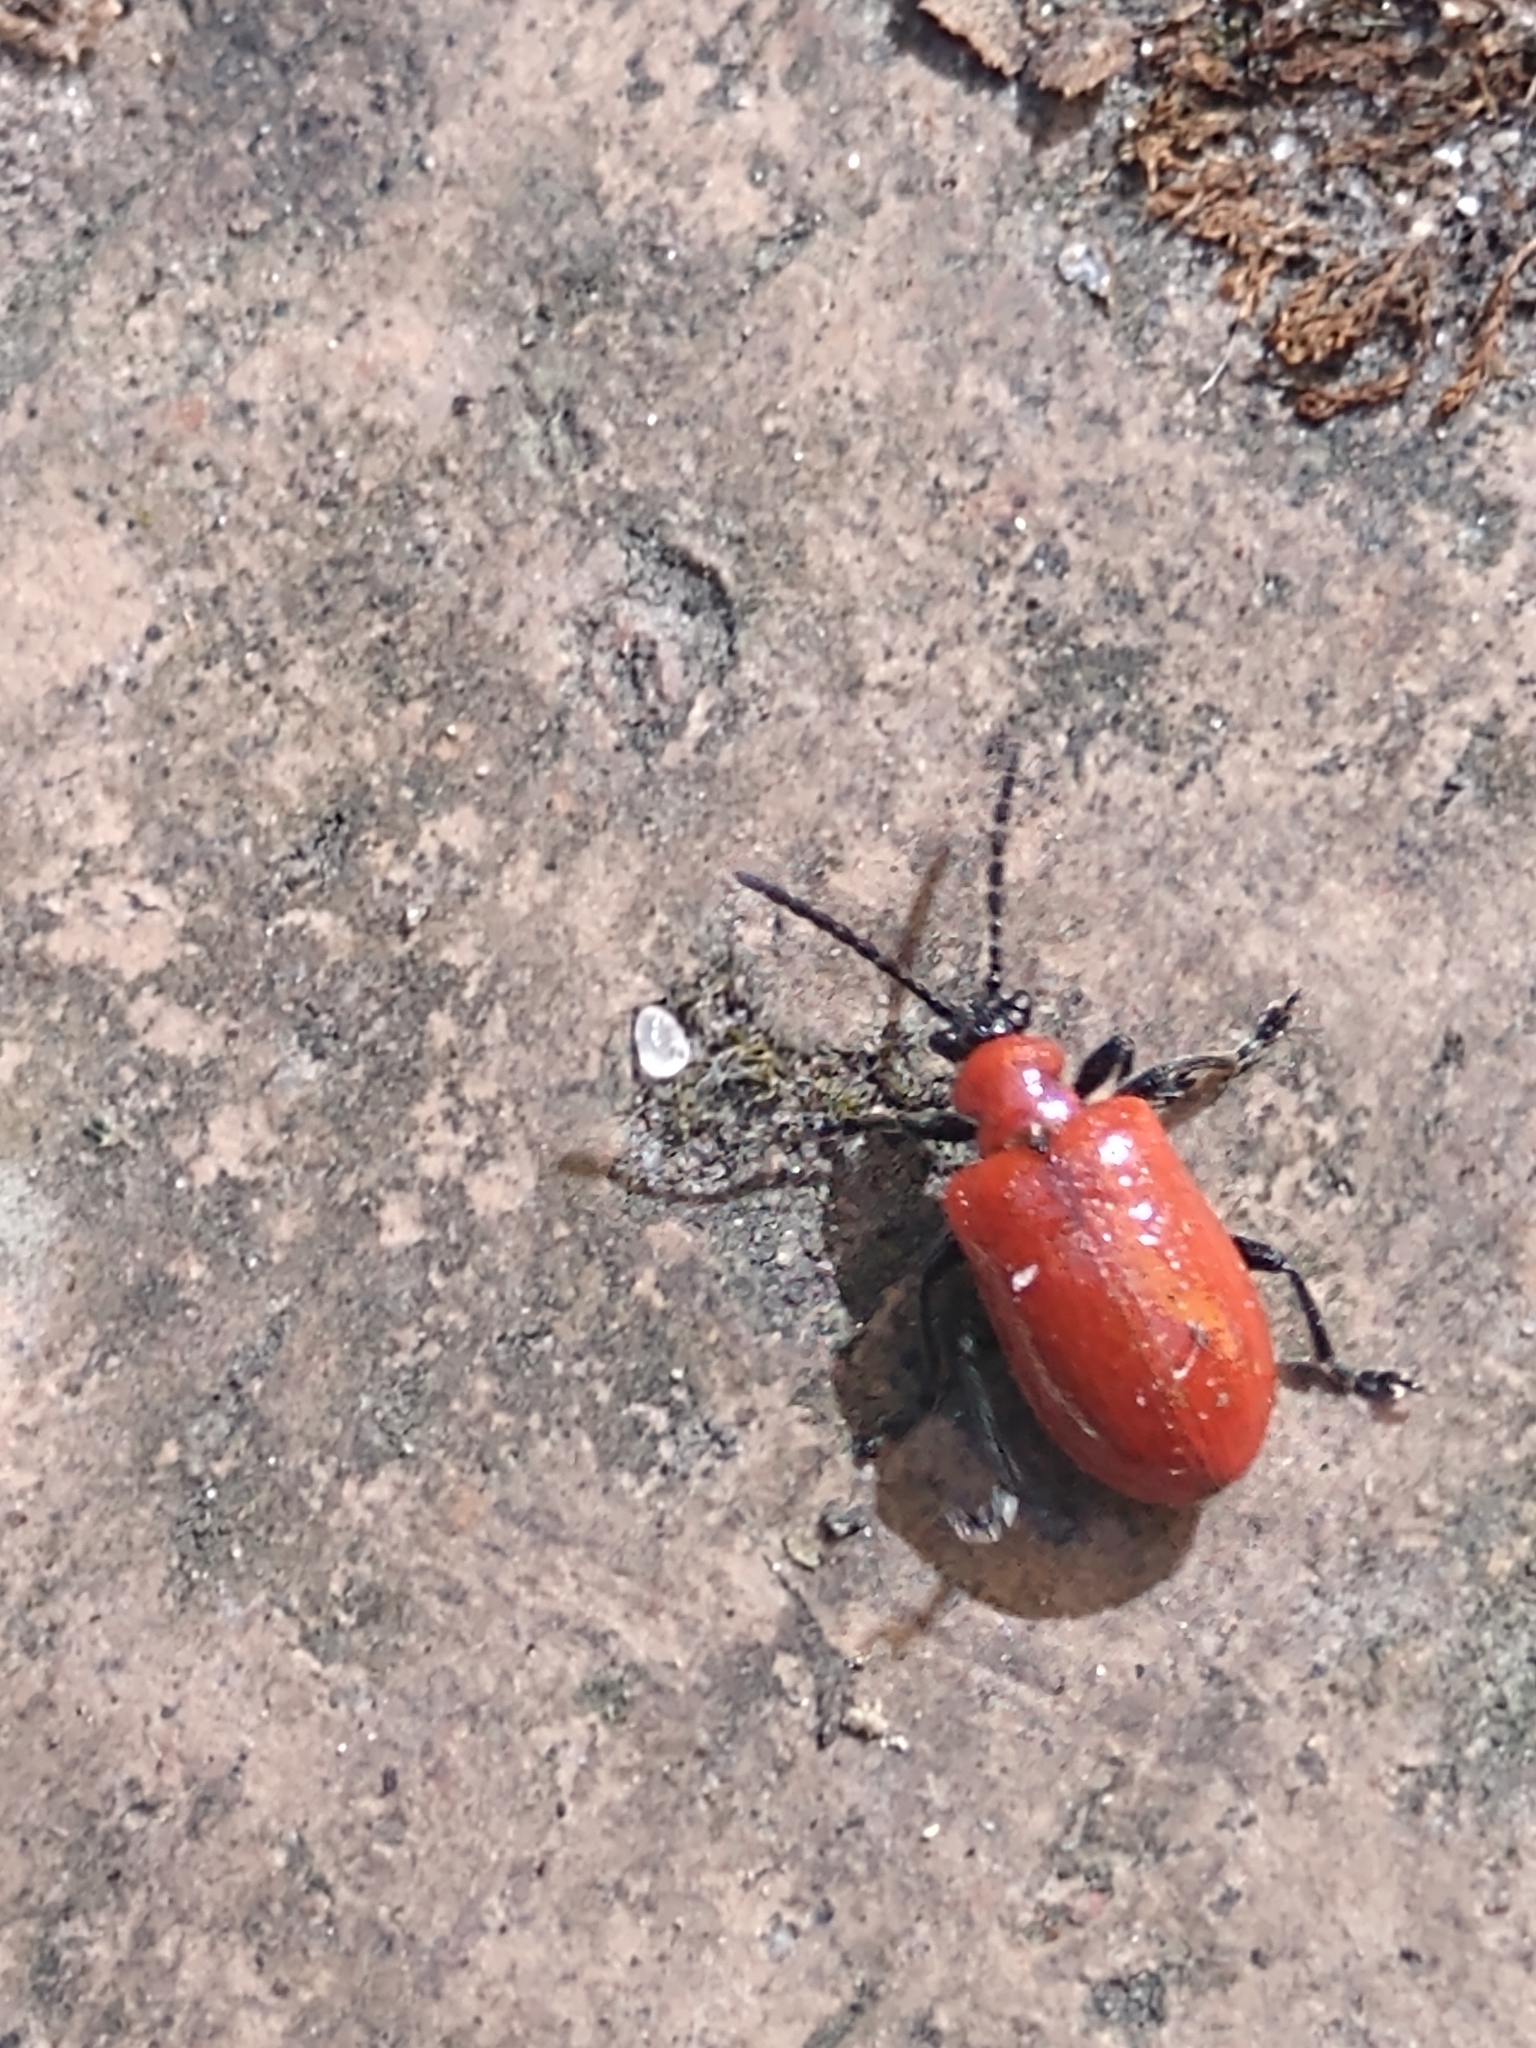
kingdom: Animalia
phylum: Arthropoda
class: Insecta
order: Coleoptera
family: Chrysomelidae
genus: Lilioceris
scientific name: Lilioceris lilii
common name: Lily beetle
